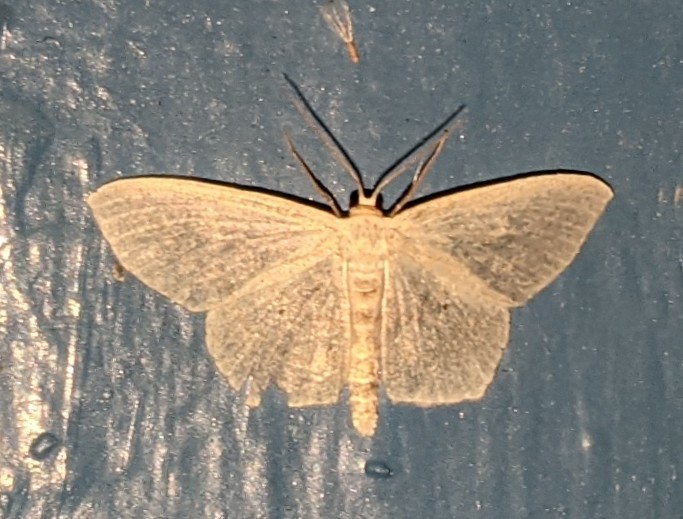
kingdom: Animalia
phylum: Arthropoda
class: Insecta
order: Lepidoptera
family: Geometridae
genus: Scopula
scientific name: Scopula limboundata
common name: Large lace border
